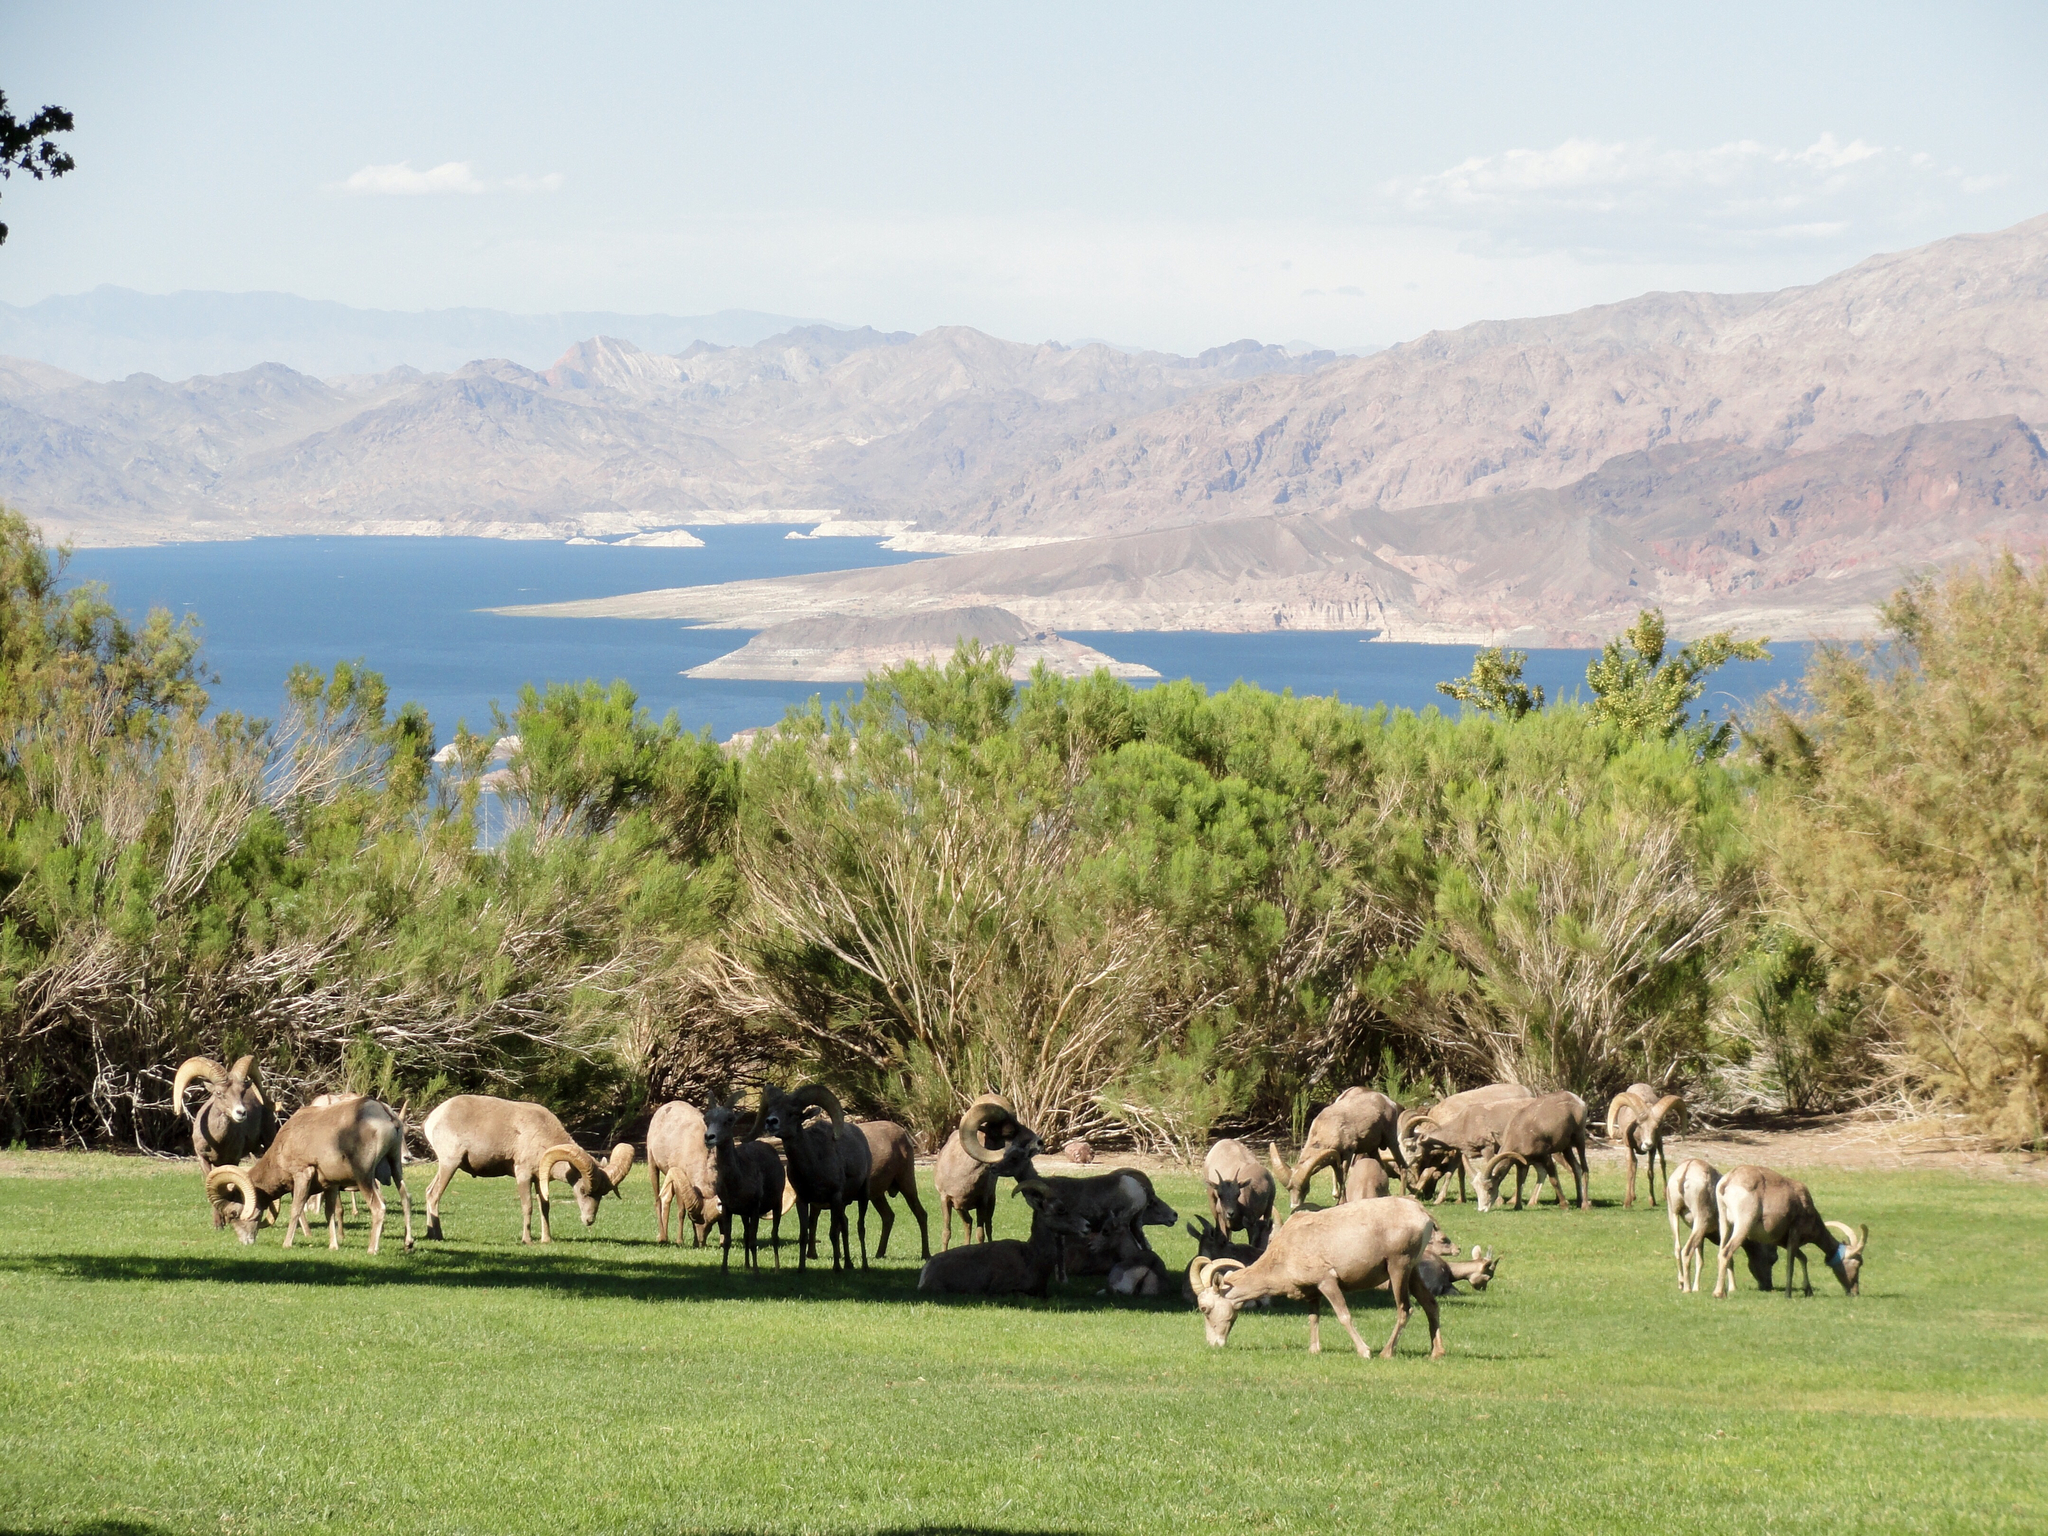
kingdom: Animalia
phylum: Chordata
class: Mammalia
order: Artiodactyla
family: Bovidae
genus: Ovis
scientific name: Ovis canadensis
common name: Bighorn sheep
